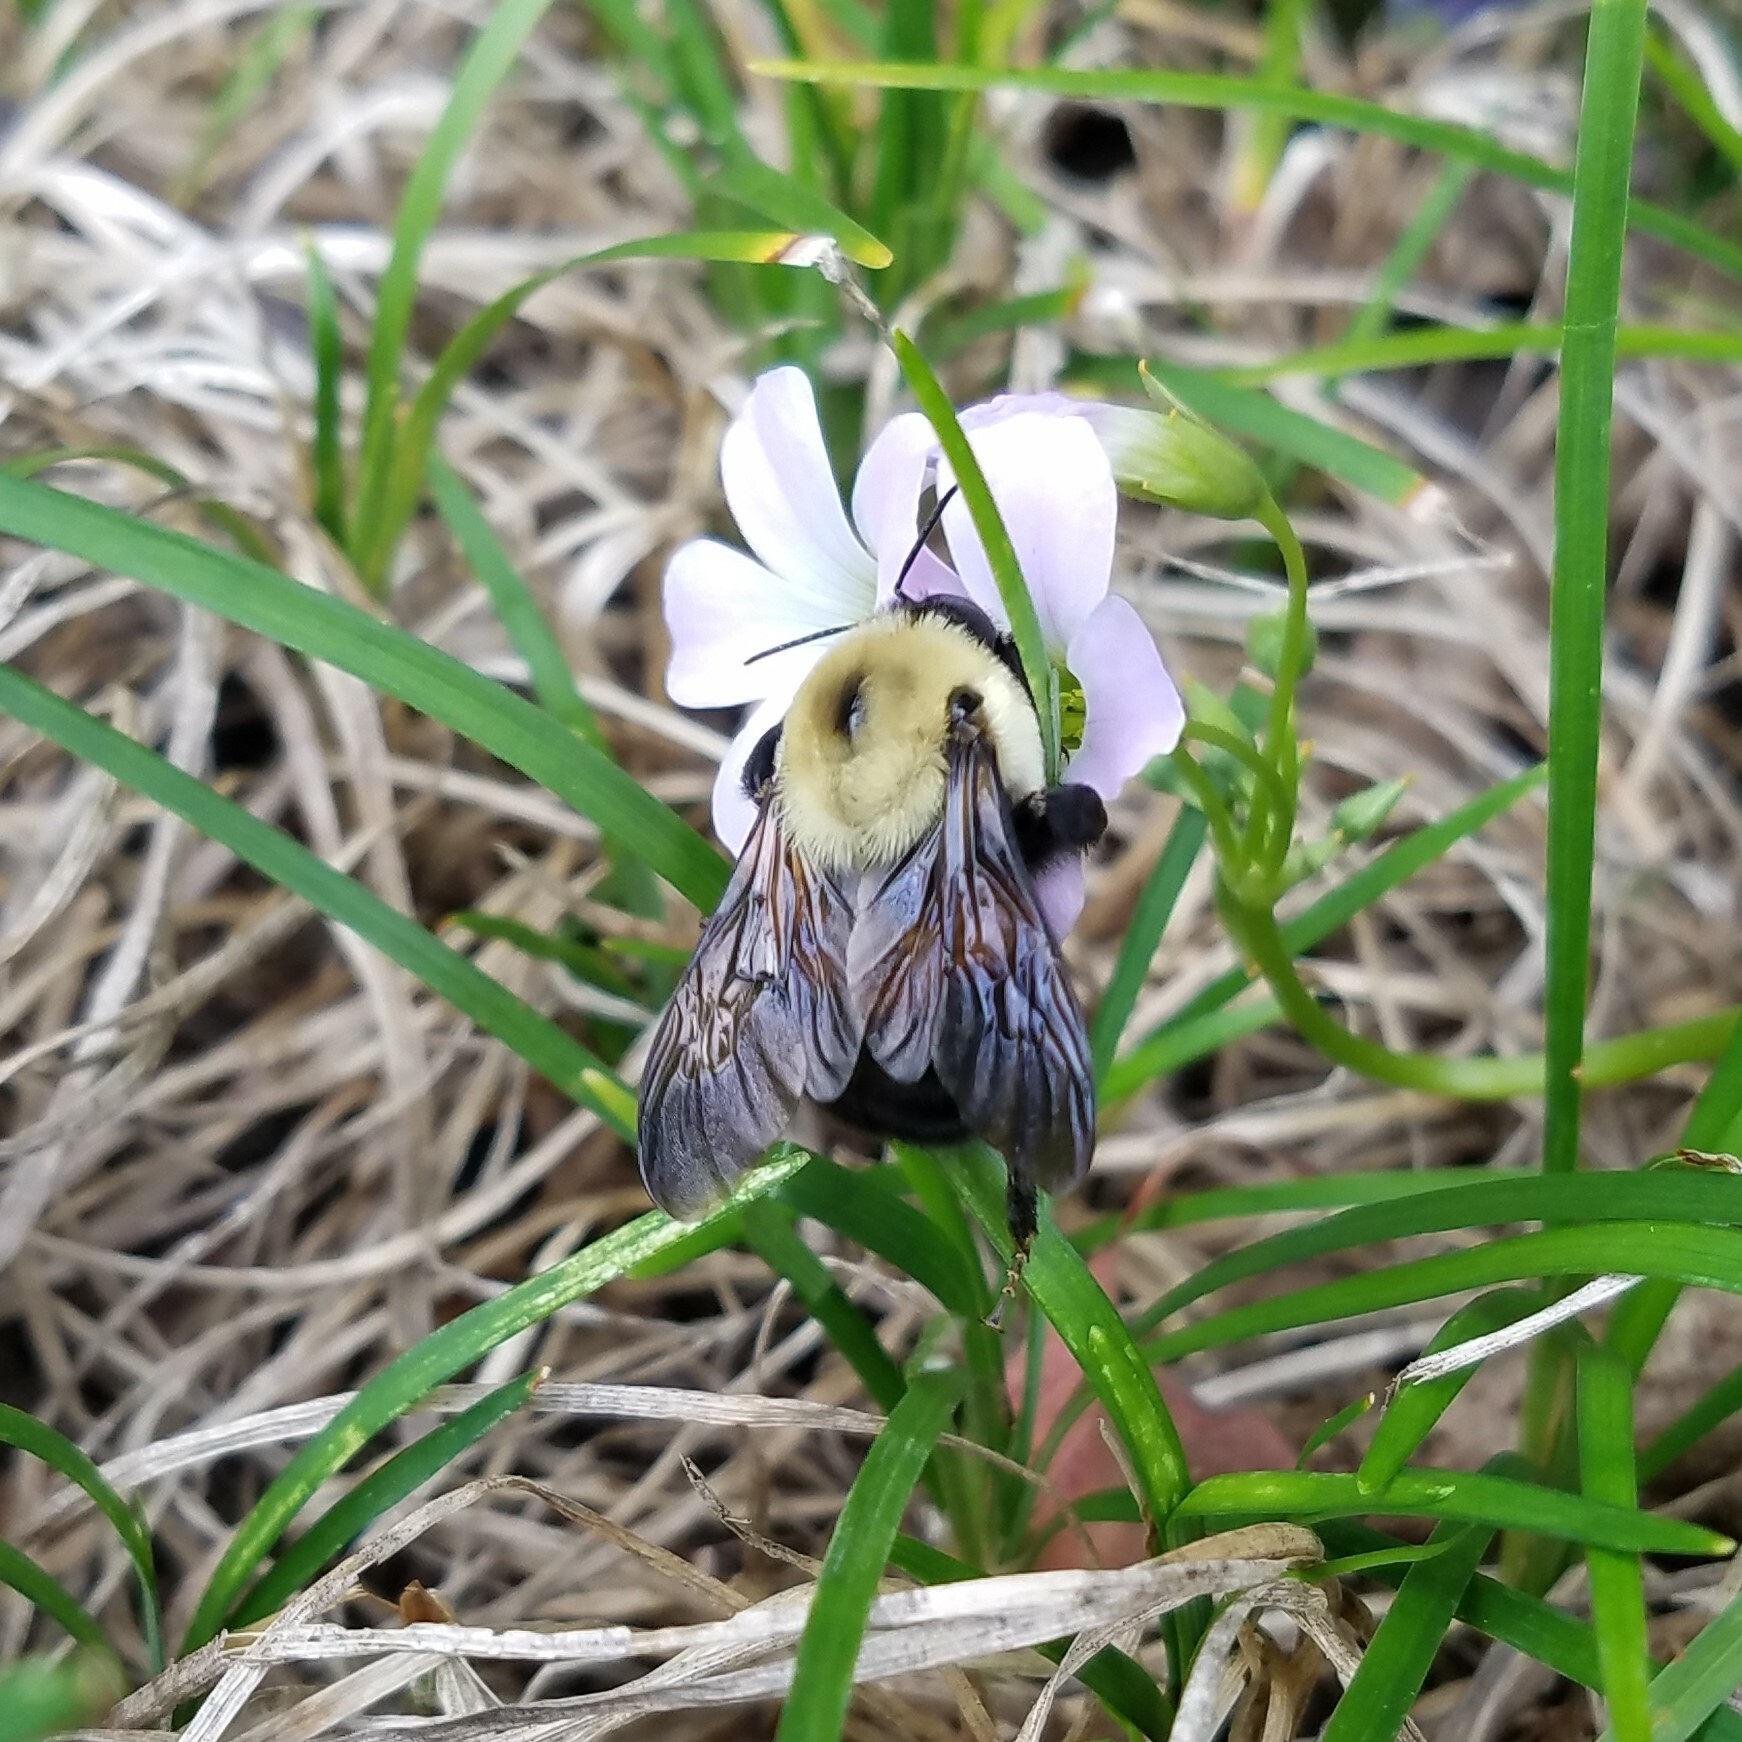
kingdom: Animalia
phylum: Arthropoda
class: Insecta
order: Hymenoptera
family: Apidae
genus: Bombus
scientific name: Bombus griseocollis
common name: Brown-belted bumble bee
